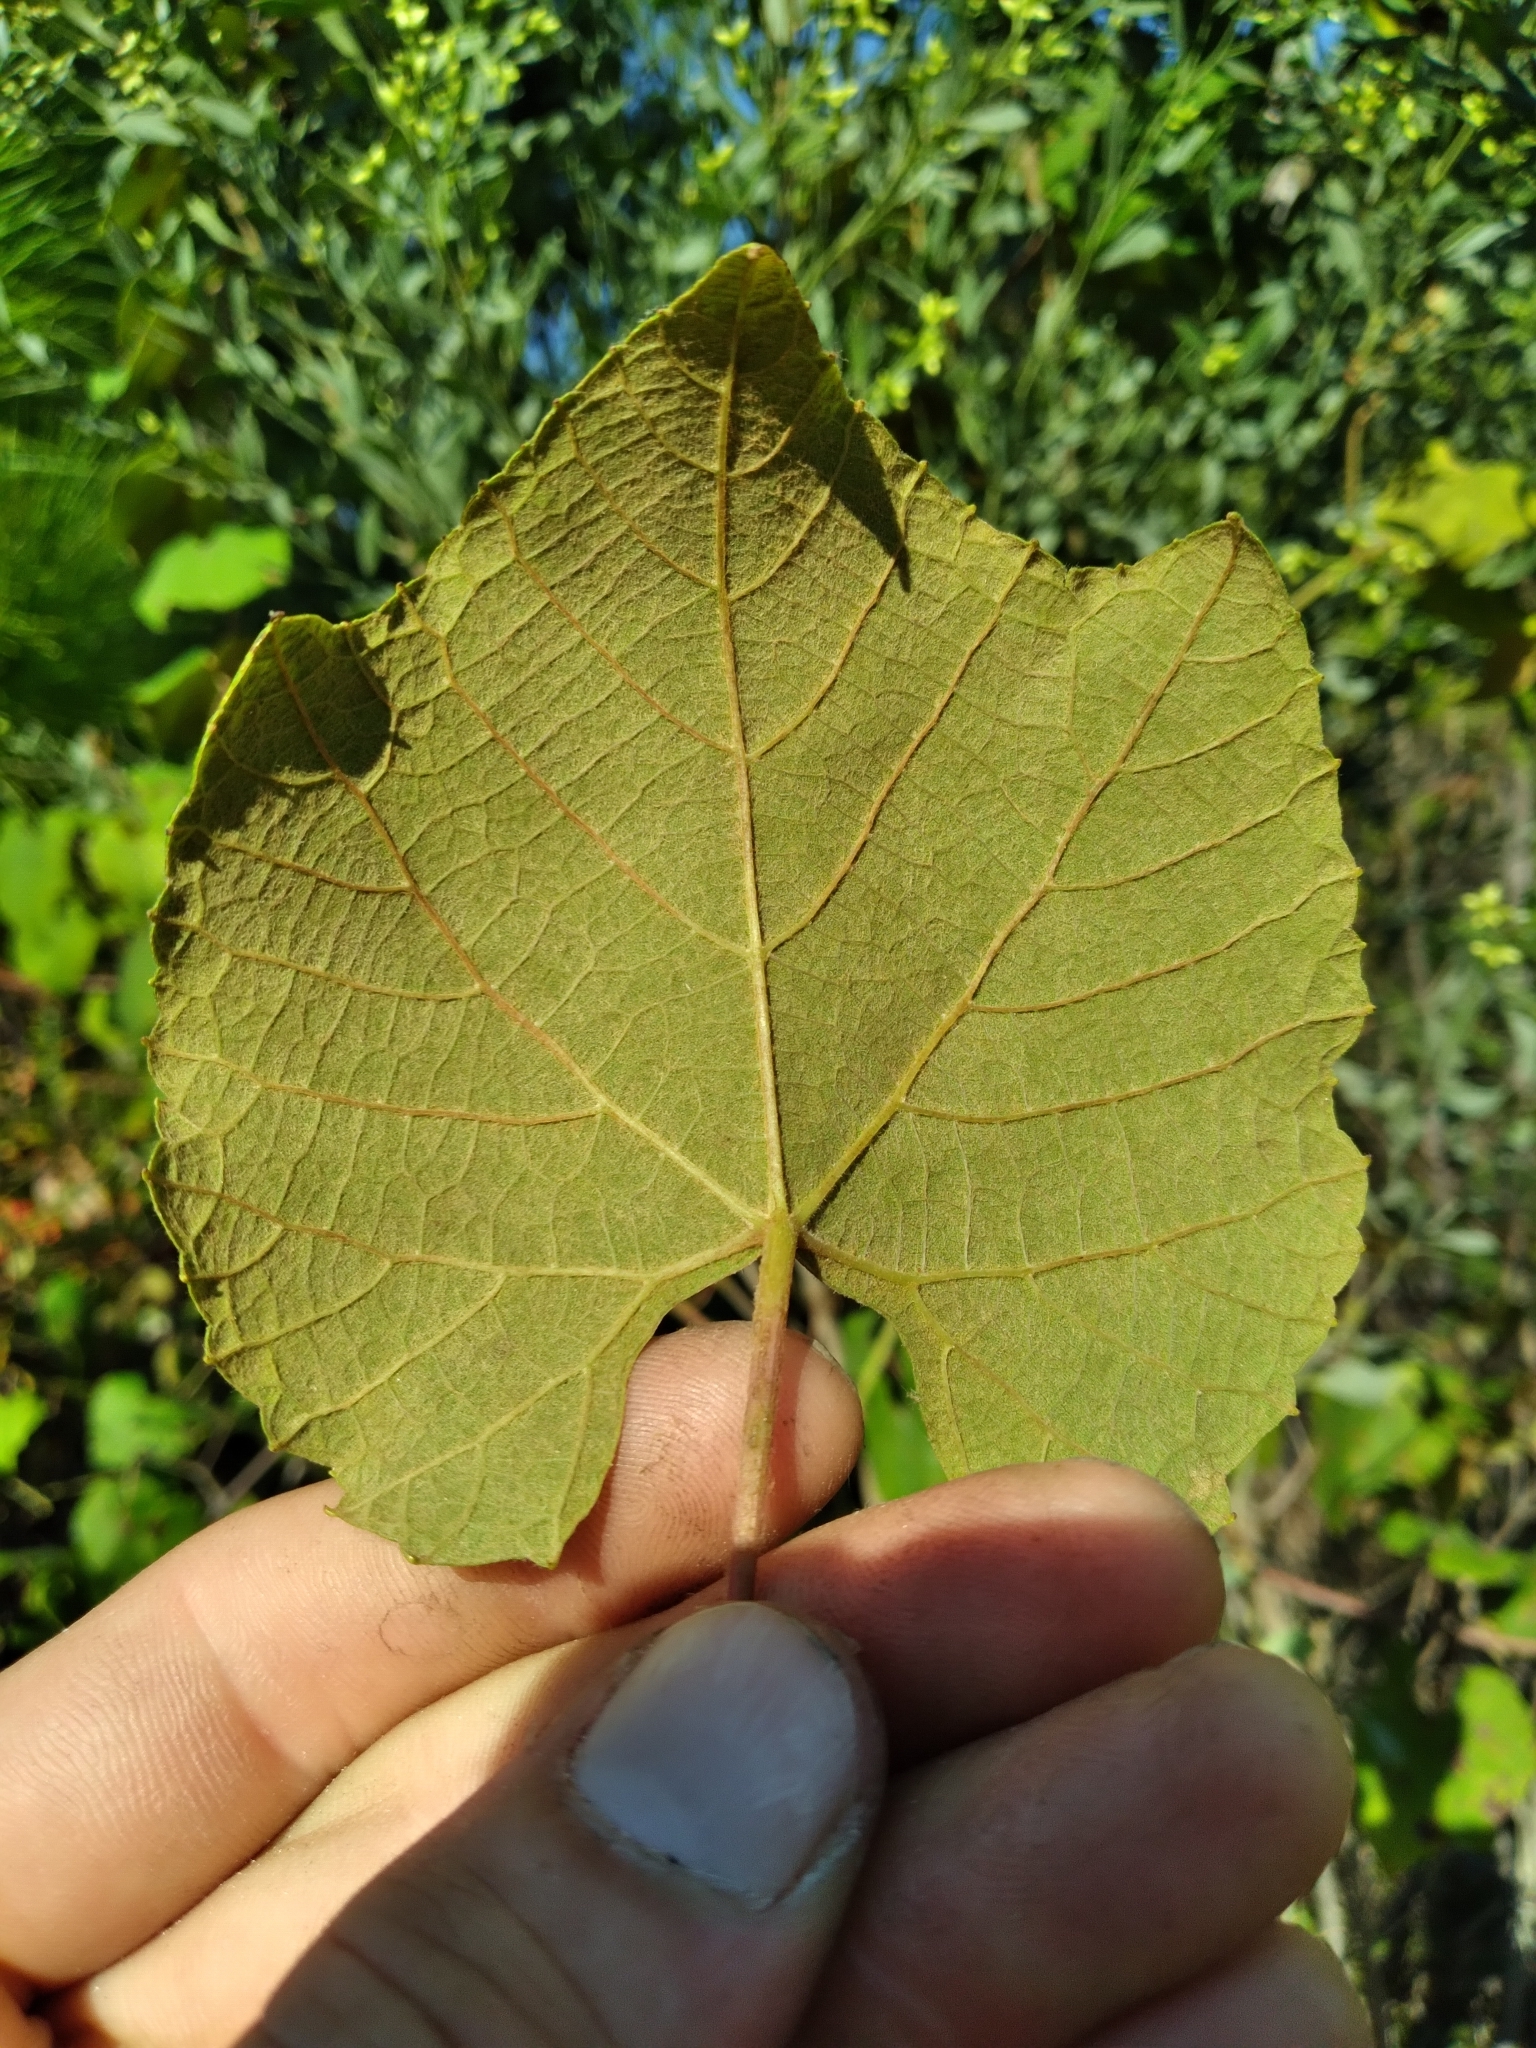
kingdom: Plantae
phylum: Tracheophyta
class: Magnoliopsida
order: Vitales
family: Vitaceae
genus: Vitis
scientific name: Vitis cinerea
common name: Ashy grape
